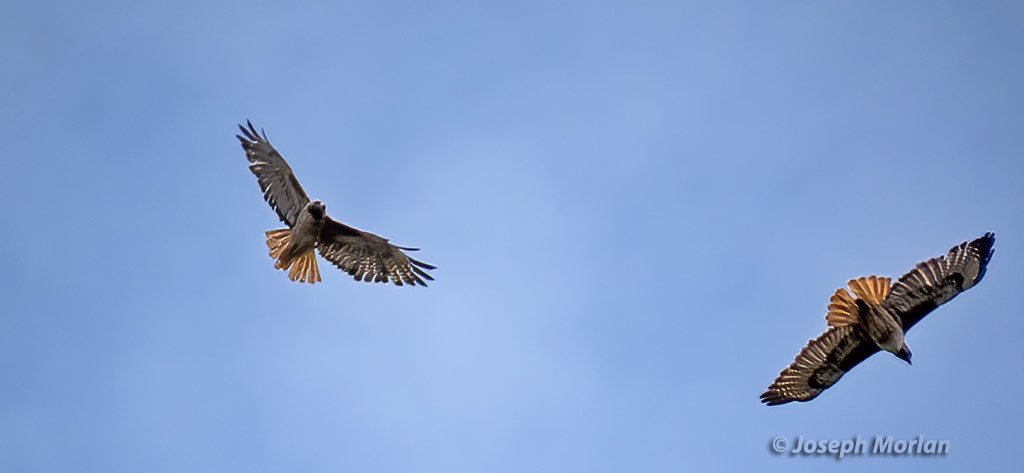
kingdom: Animalia
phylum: Chordata
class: Aves
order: Accipitriformes
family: Accipitridae
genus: Buteo
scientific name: Buteo jamaicensis
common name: Red-tailed hawk
